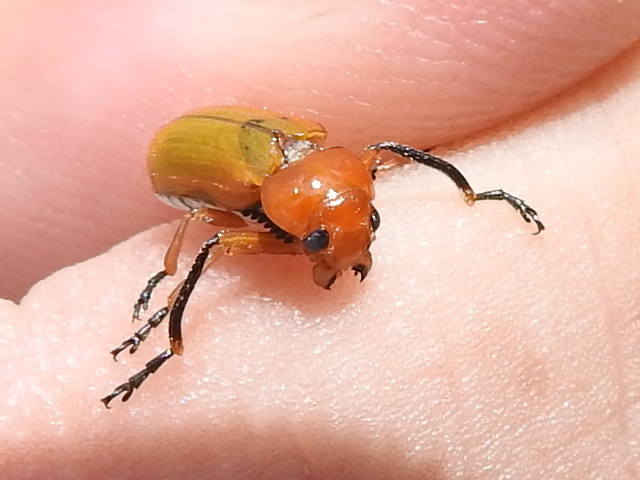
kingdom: Animalia
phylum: Arthropoda
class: Insecta
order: Coleoptera
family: Chrysomelidae
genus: Anomoea
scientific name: Anomoea laticlavia
